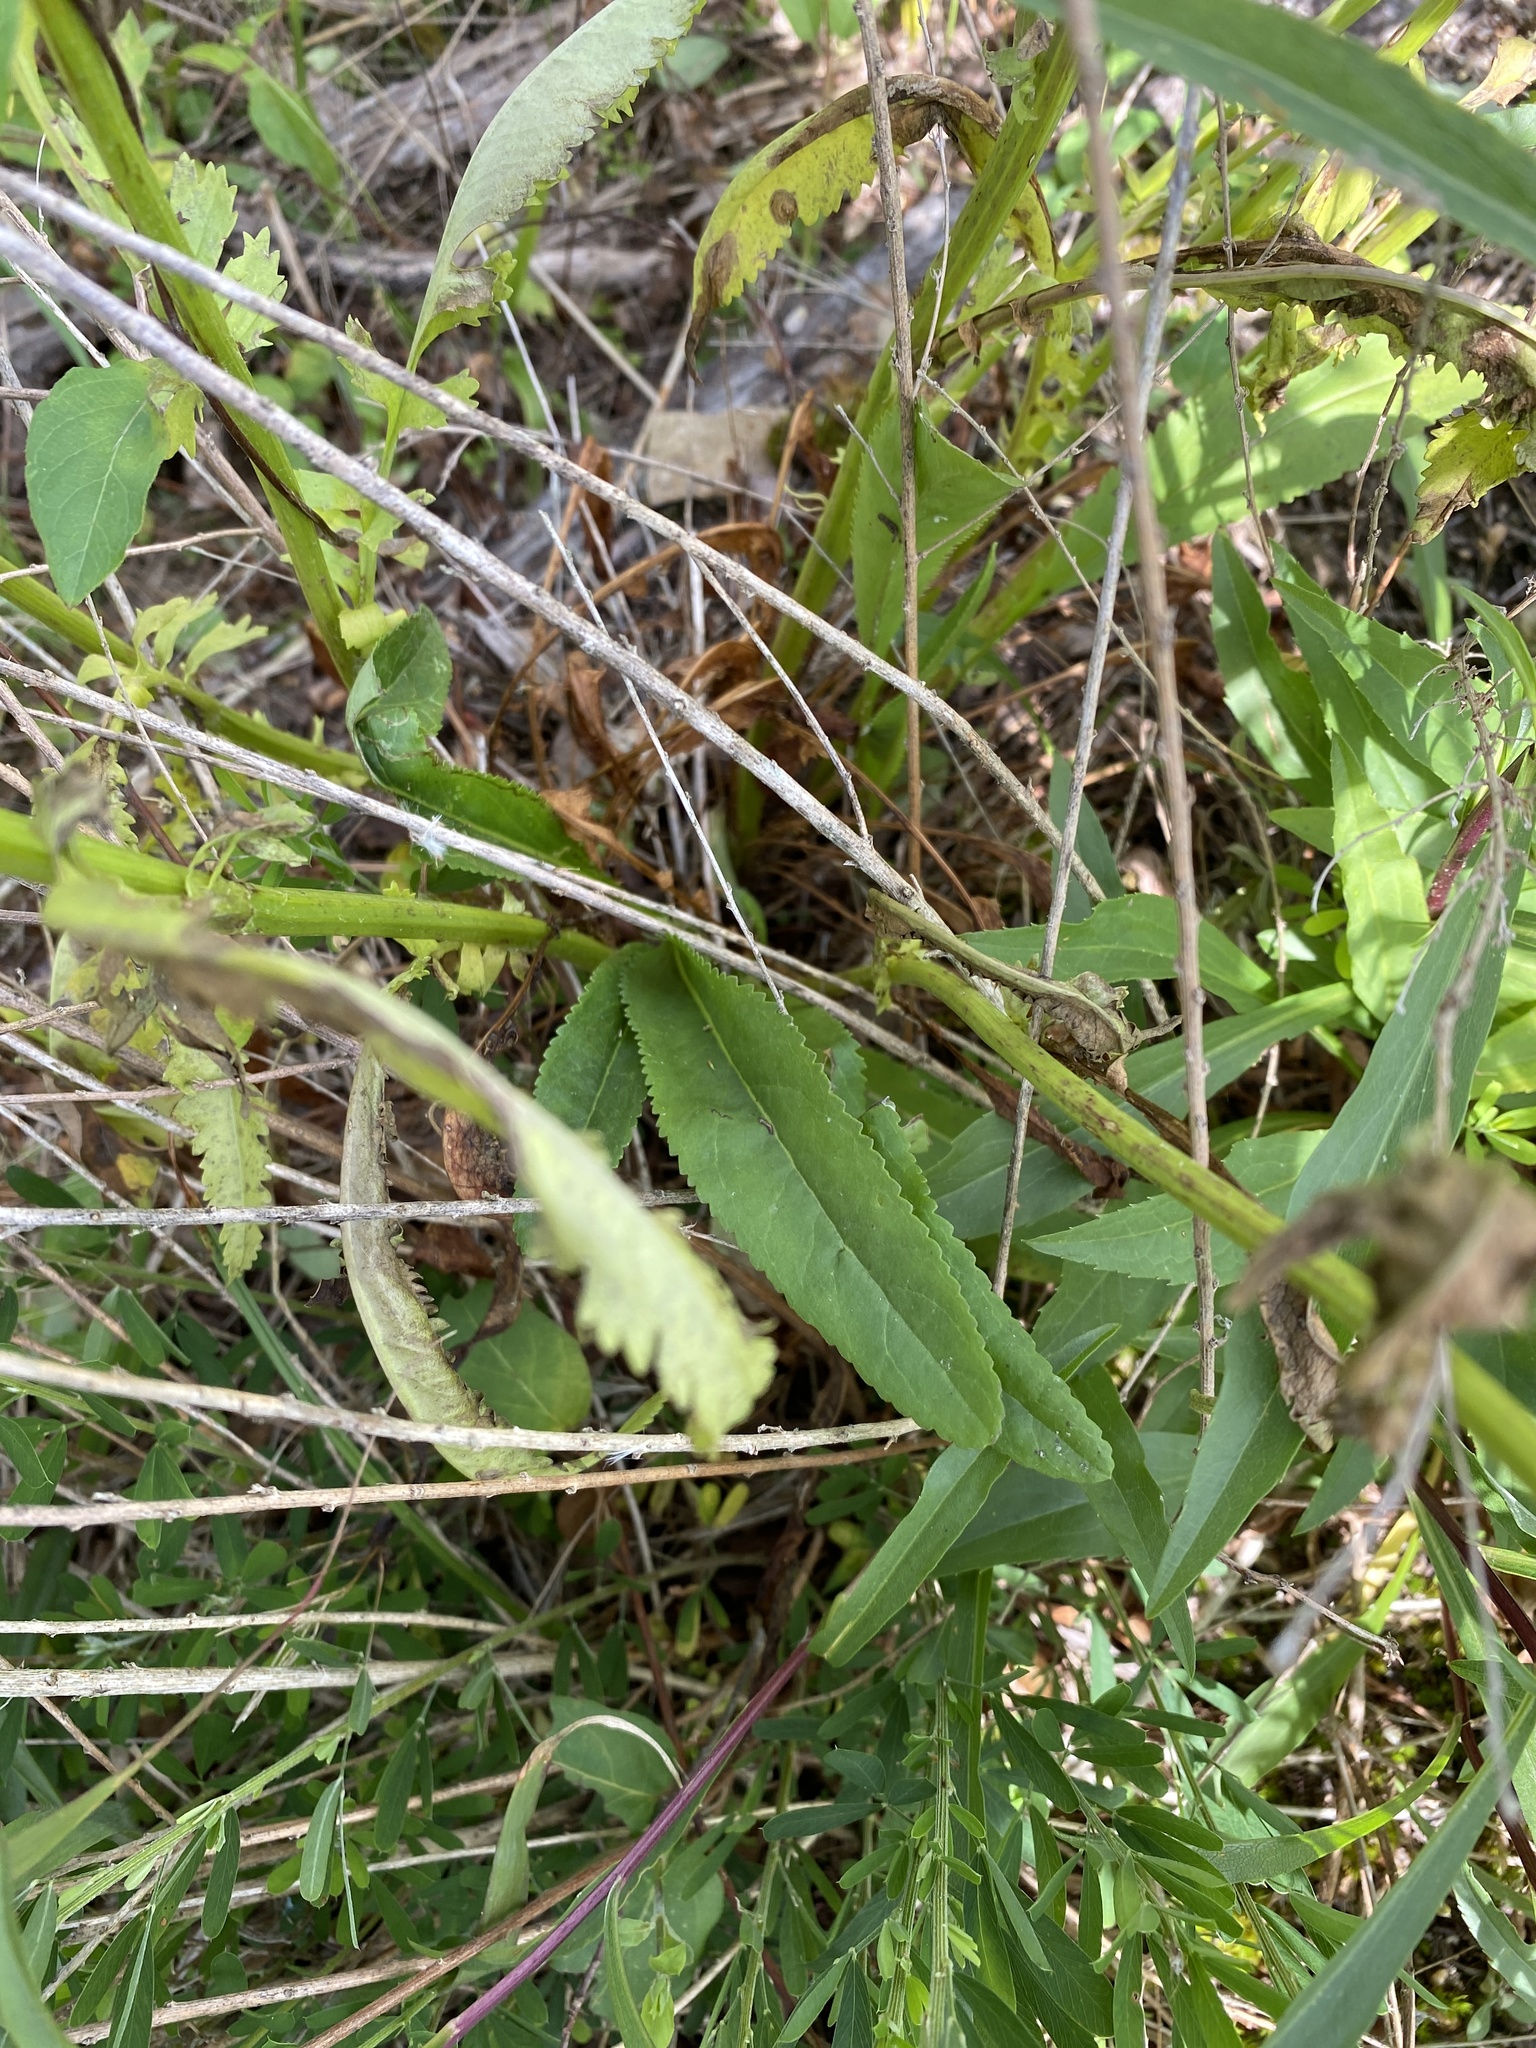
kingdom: Plantae
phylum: Tracheophyta
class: Magnoliopsida
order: Asterales
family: Asteraceae
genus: Packera
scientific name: Packera anonyma
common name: Small ragwort
